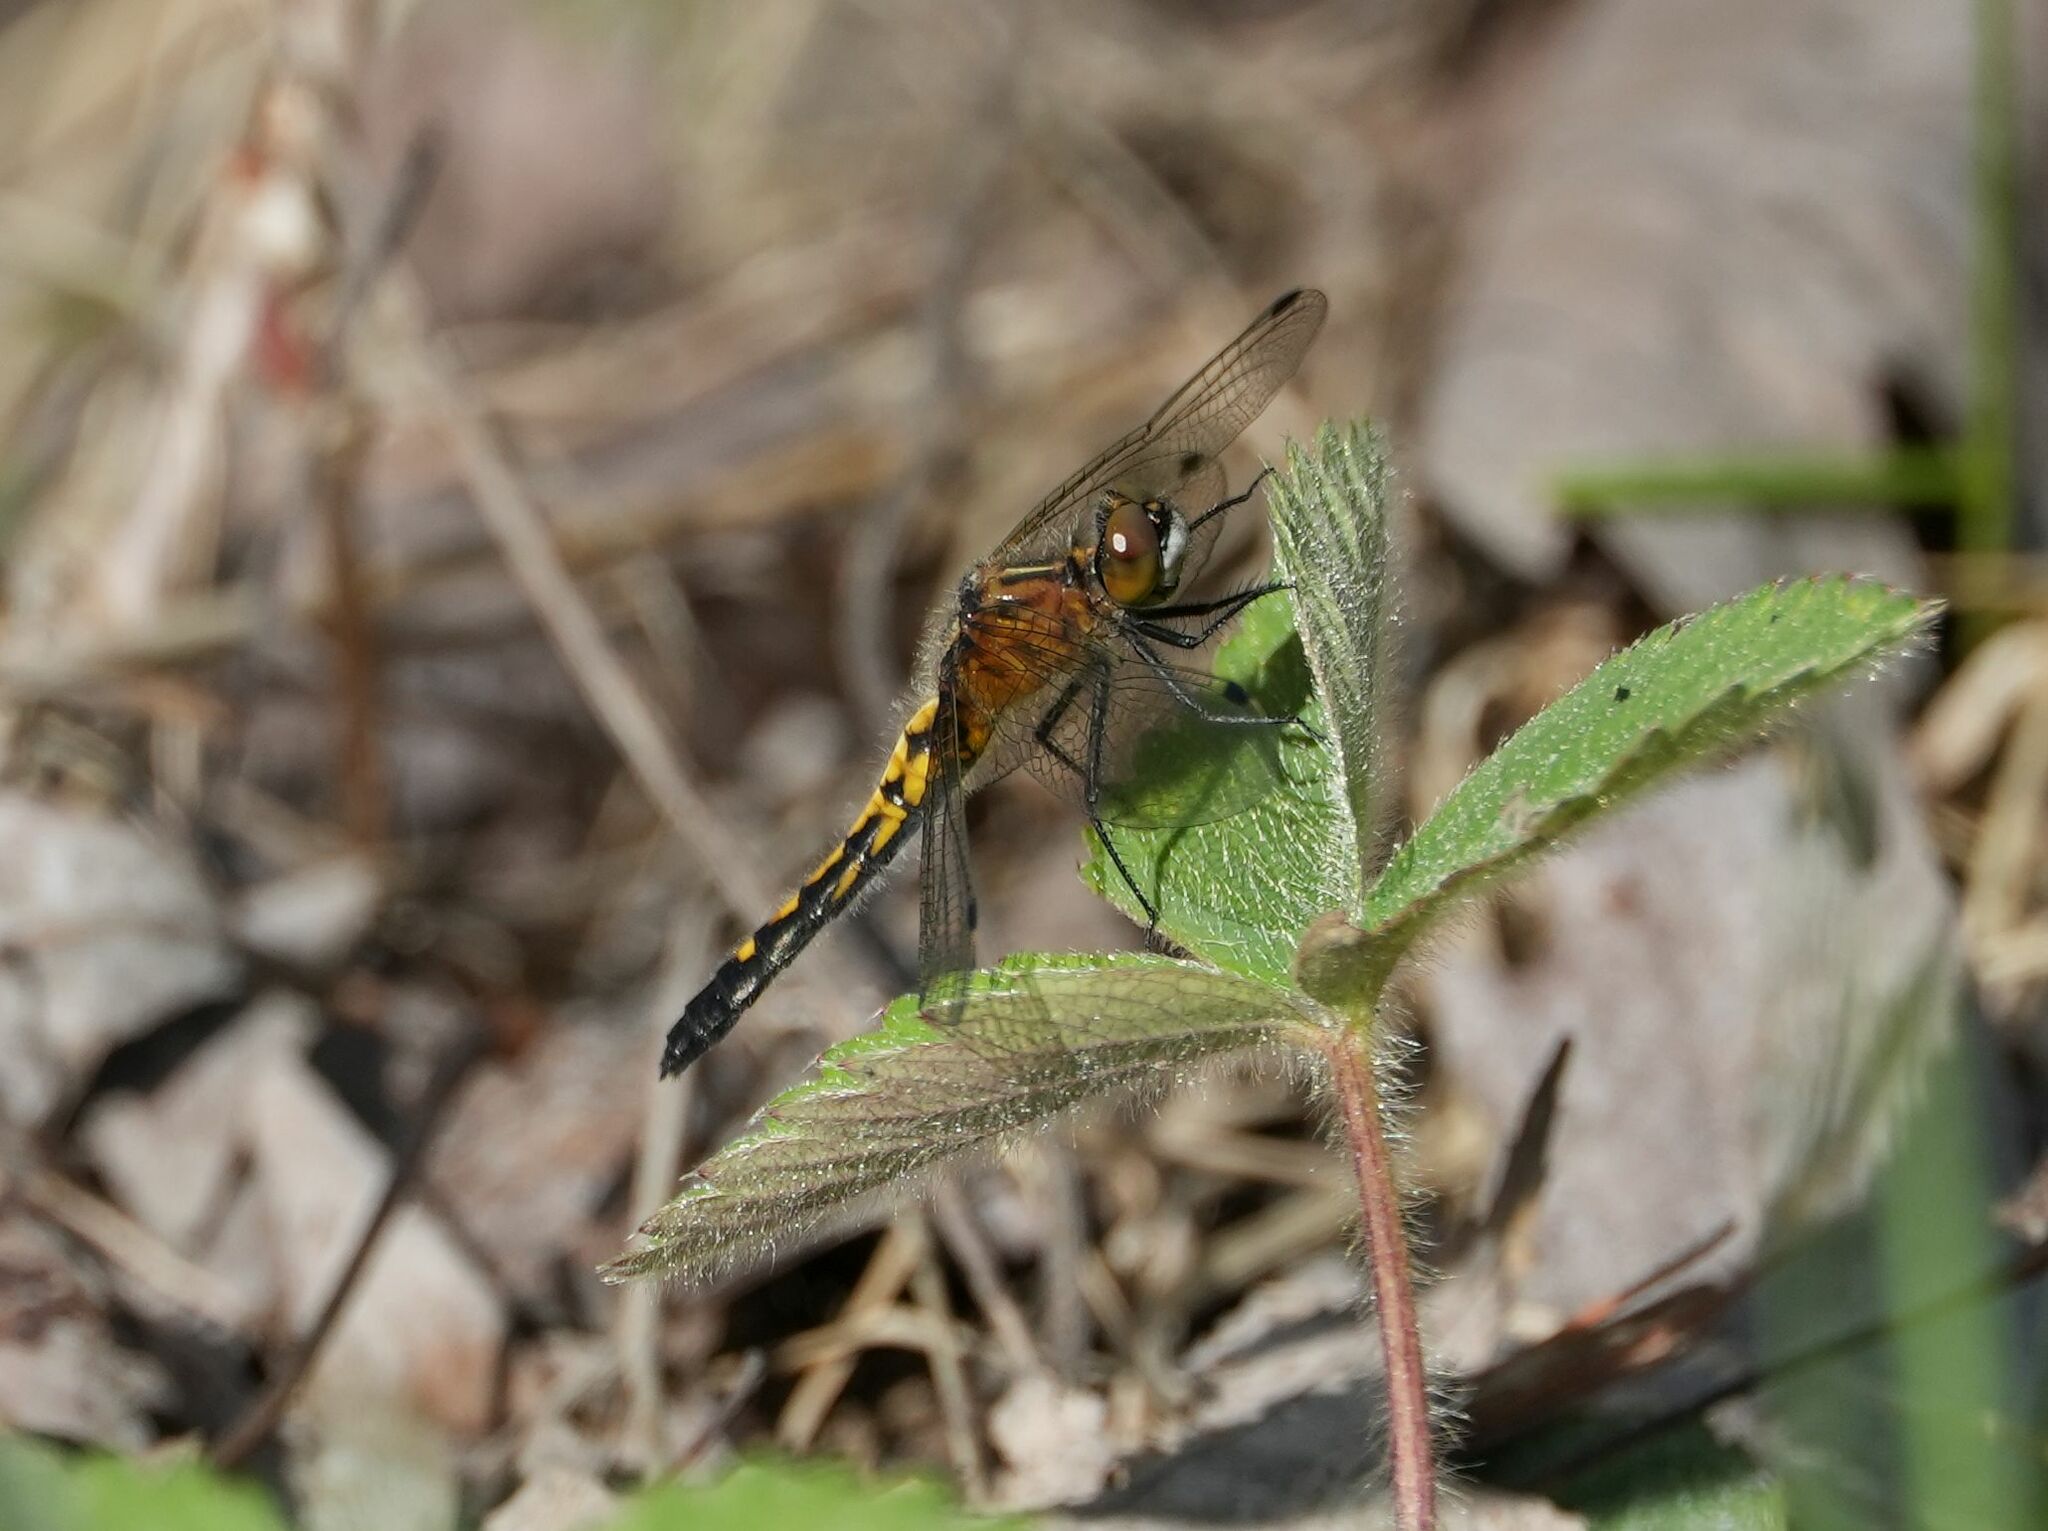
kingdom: Animalia
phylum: Arthropoda
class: Insecta
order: Odonata
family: Libellulidae
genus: Leucorrhinia
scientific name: Leucorrhinia intacta
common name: Dot-tailed whiteface
